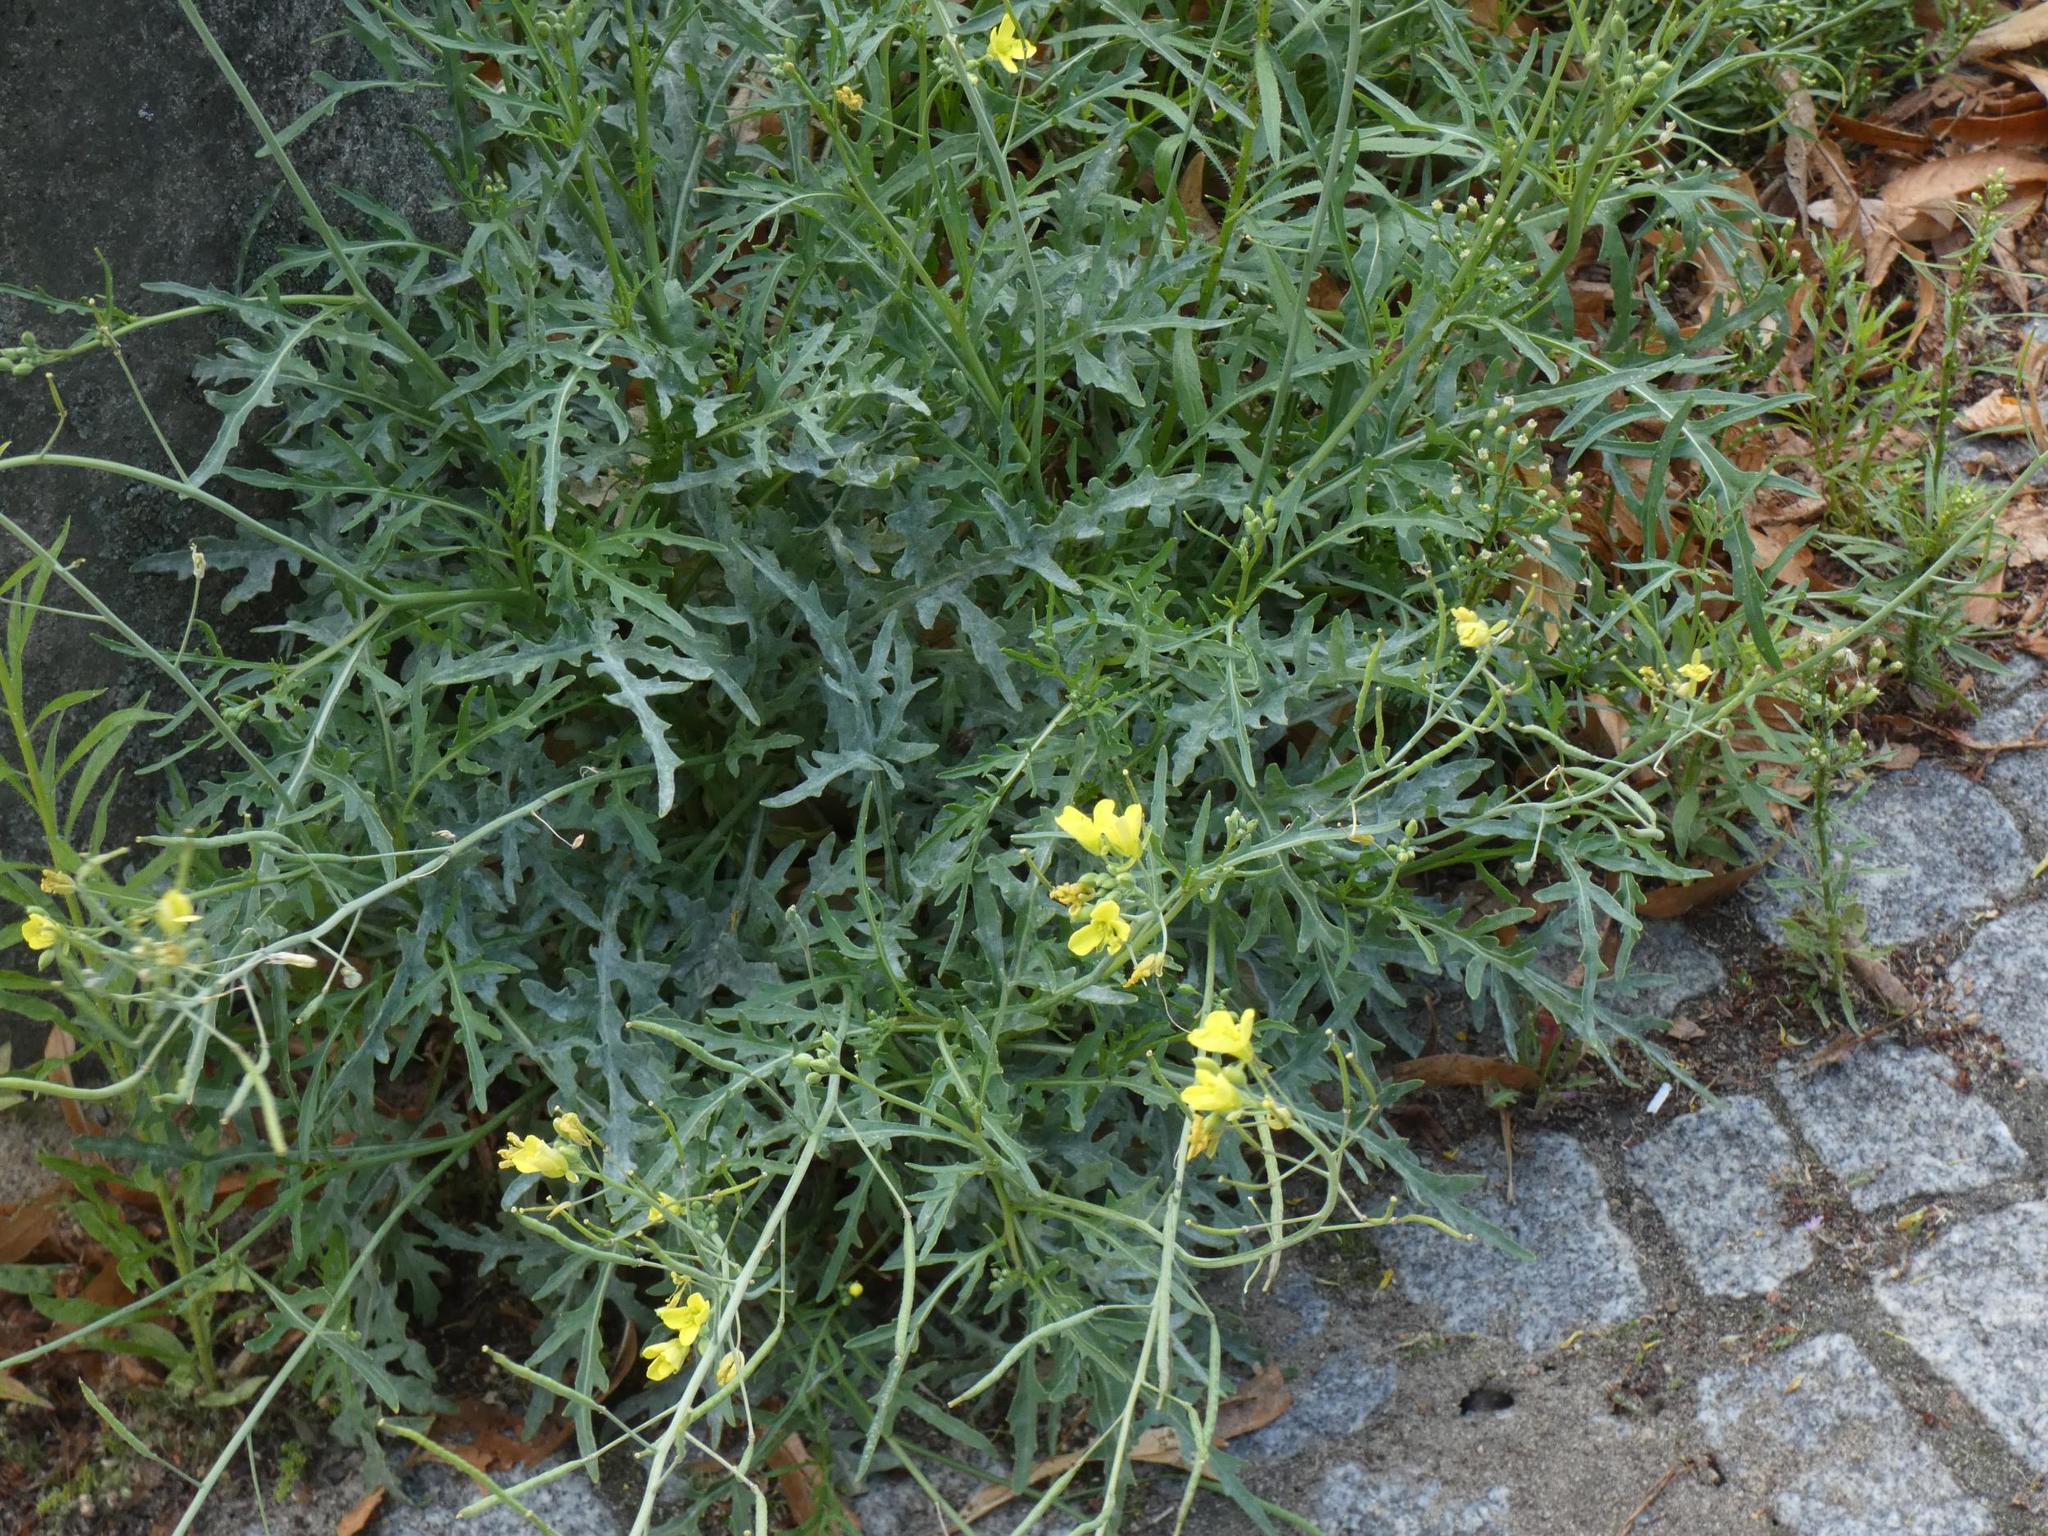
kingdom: Plantae
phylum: Tracheophyta
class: Magnoliopsida
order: Brassicales
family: Brassicaceae
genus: Diplotaxis
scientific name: Diplotaxis tenuifolia
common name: Perennial wall-rocket
